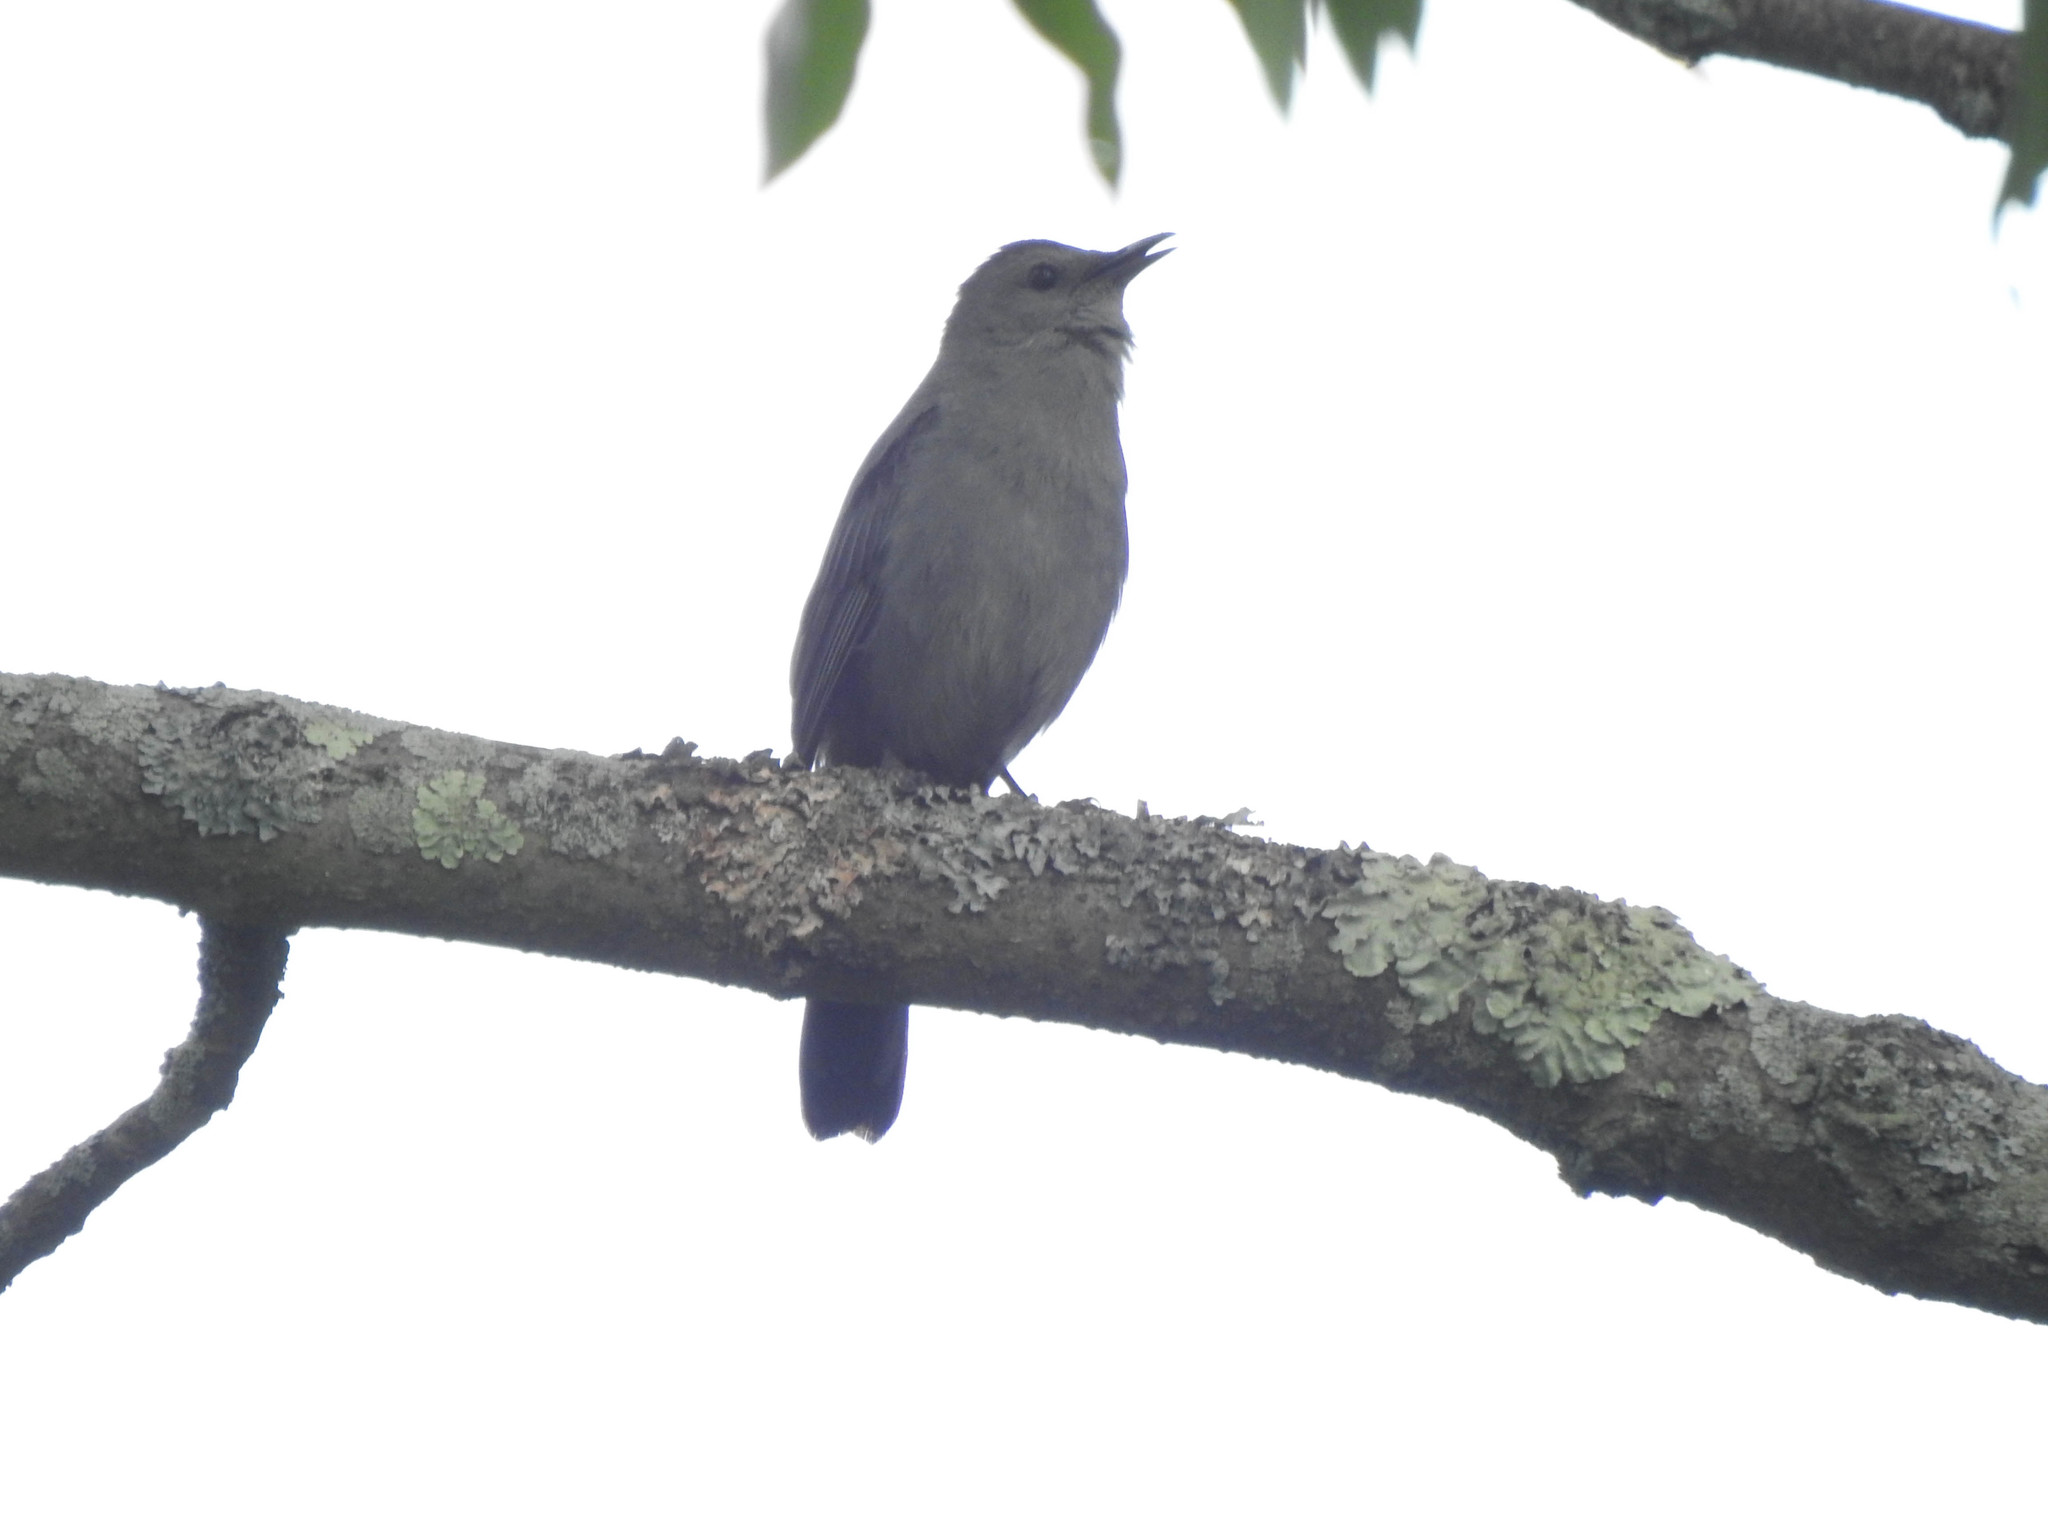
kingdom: Animalia
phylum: Chordata
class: Aves
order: Passeriformes
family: Mimidae
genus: Dumetella
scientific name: Dumetella carolinensis
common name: Gray catbird
